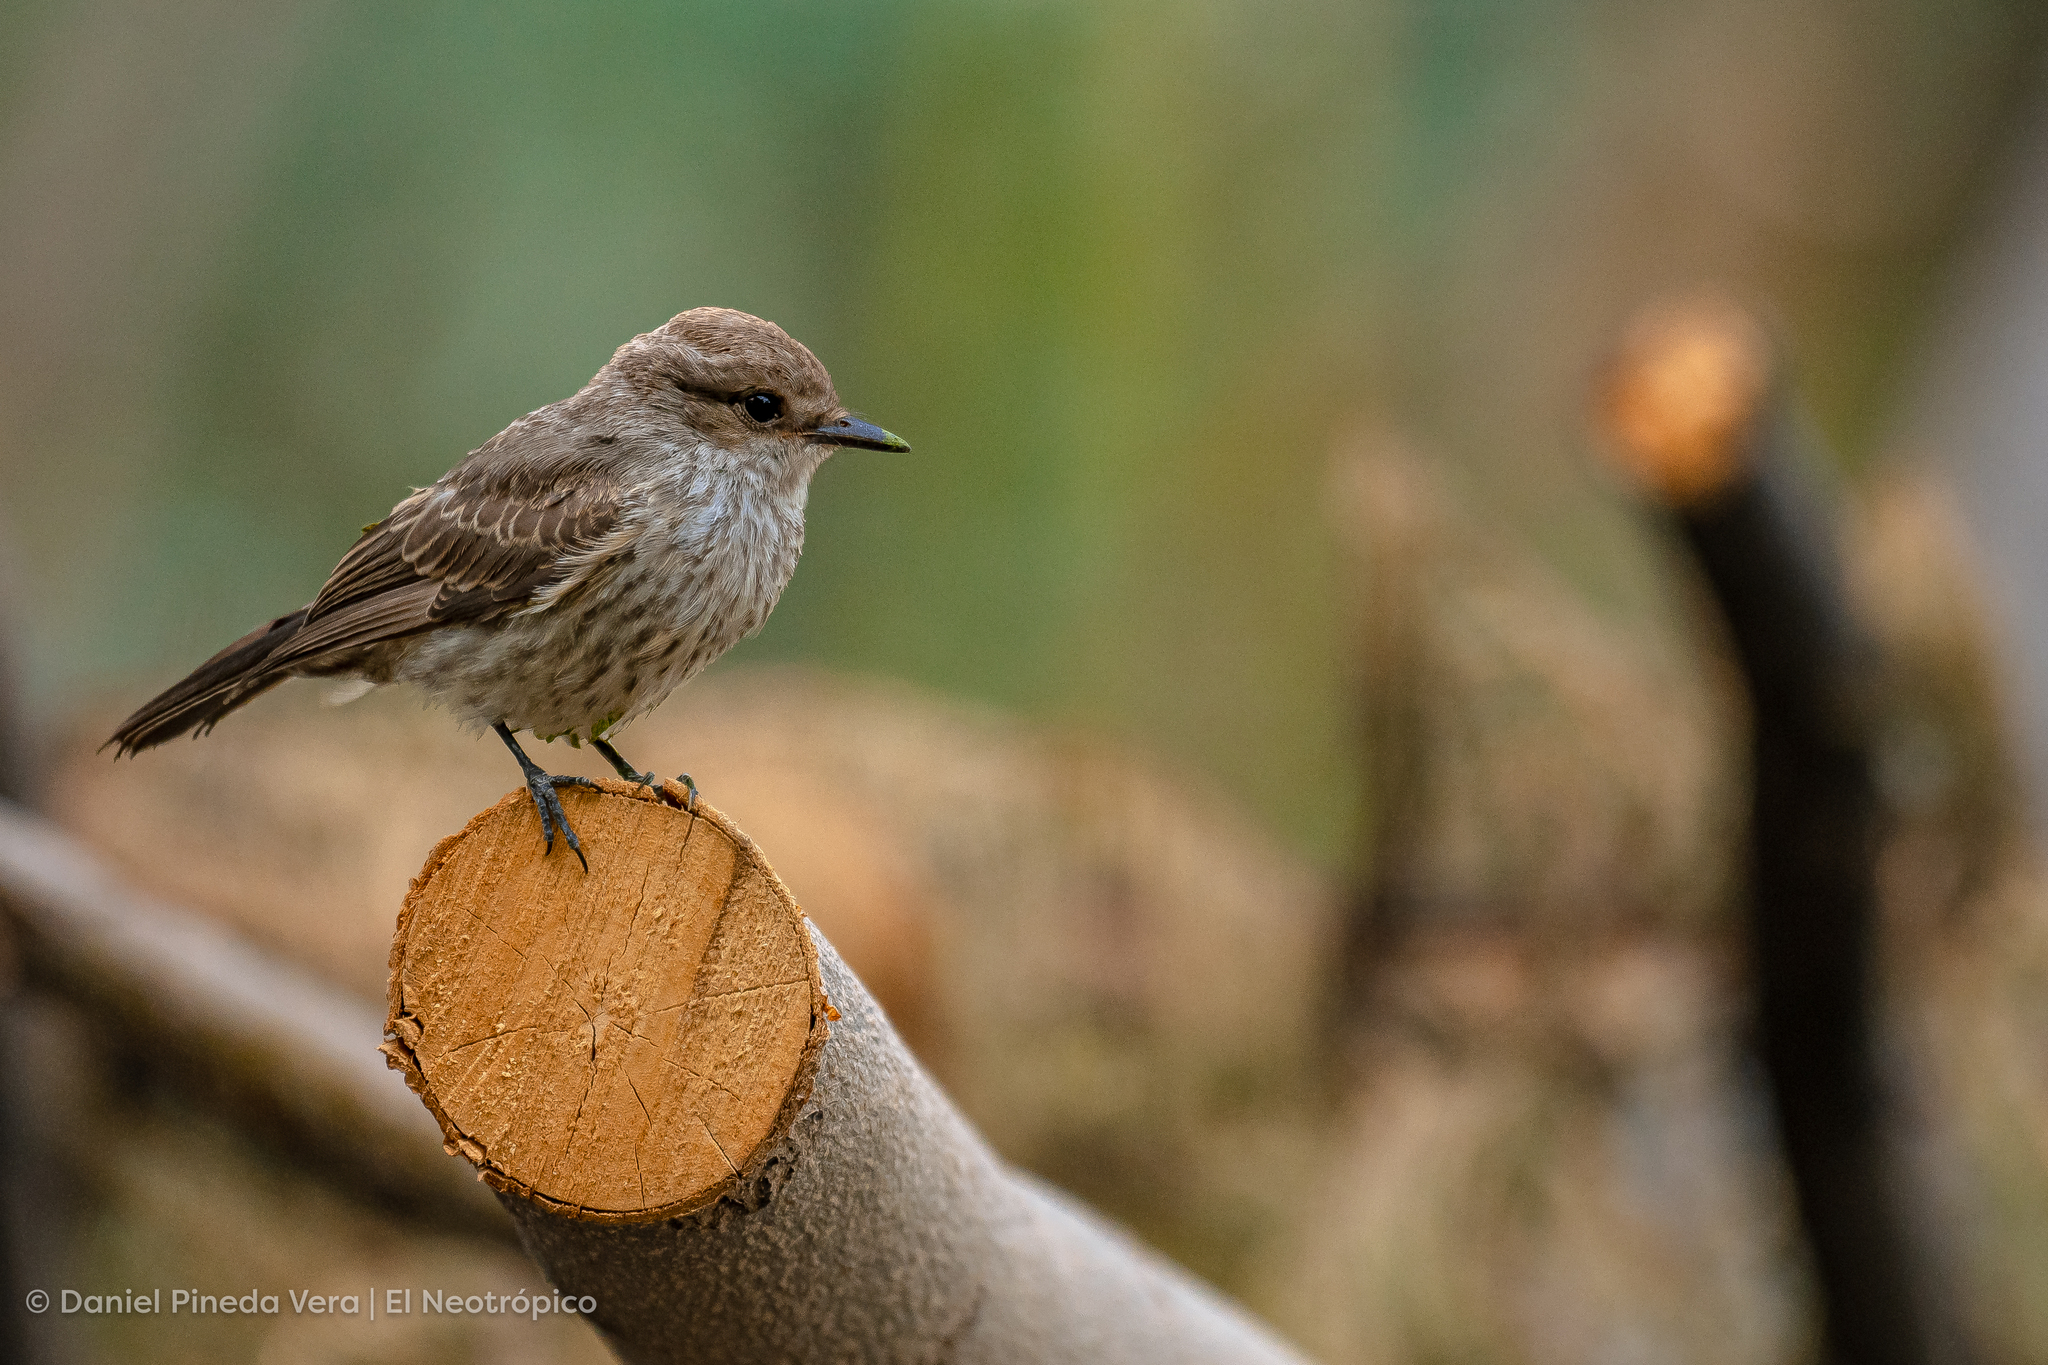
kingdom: Animalia
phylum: Chordata
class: Aves
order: Passeriformes
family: Tyrannidae
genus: Pyrocephalus
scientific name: Pyrocephalus rubinus
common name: Vermilion flycatcher
